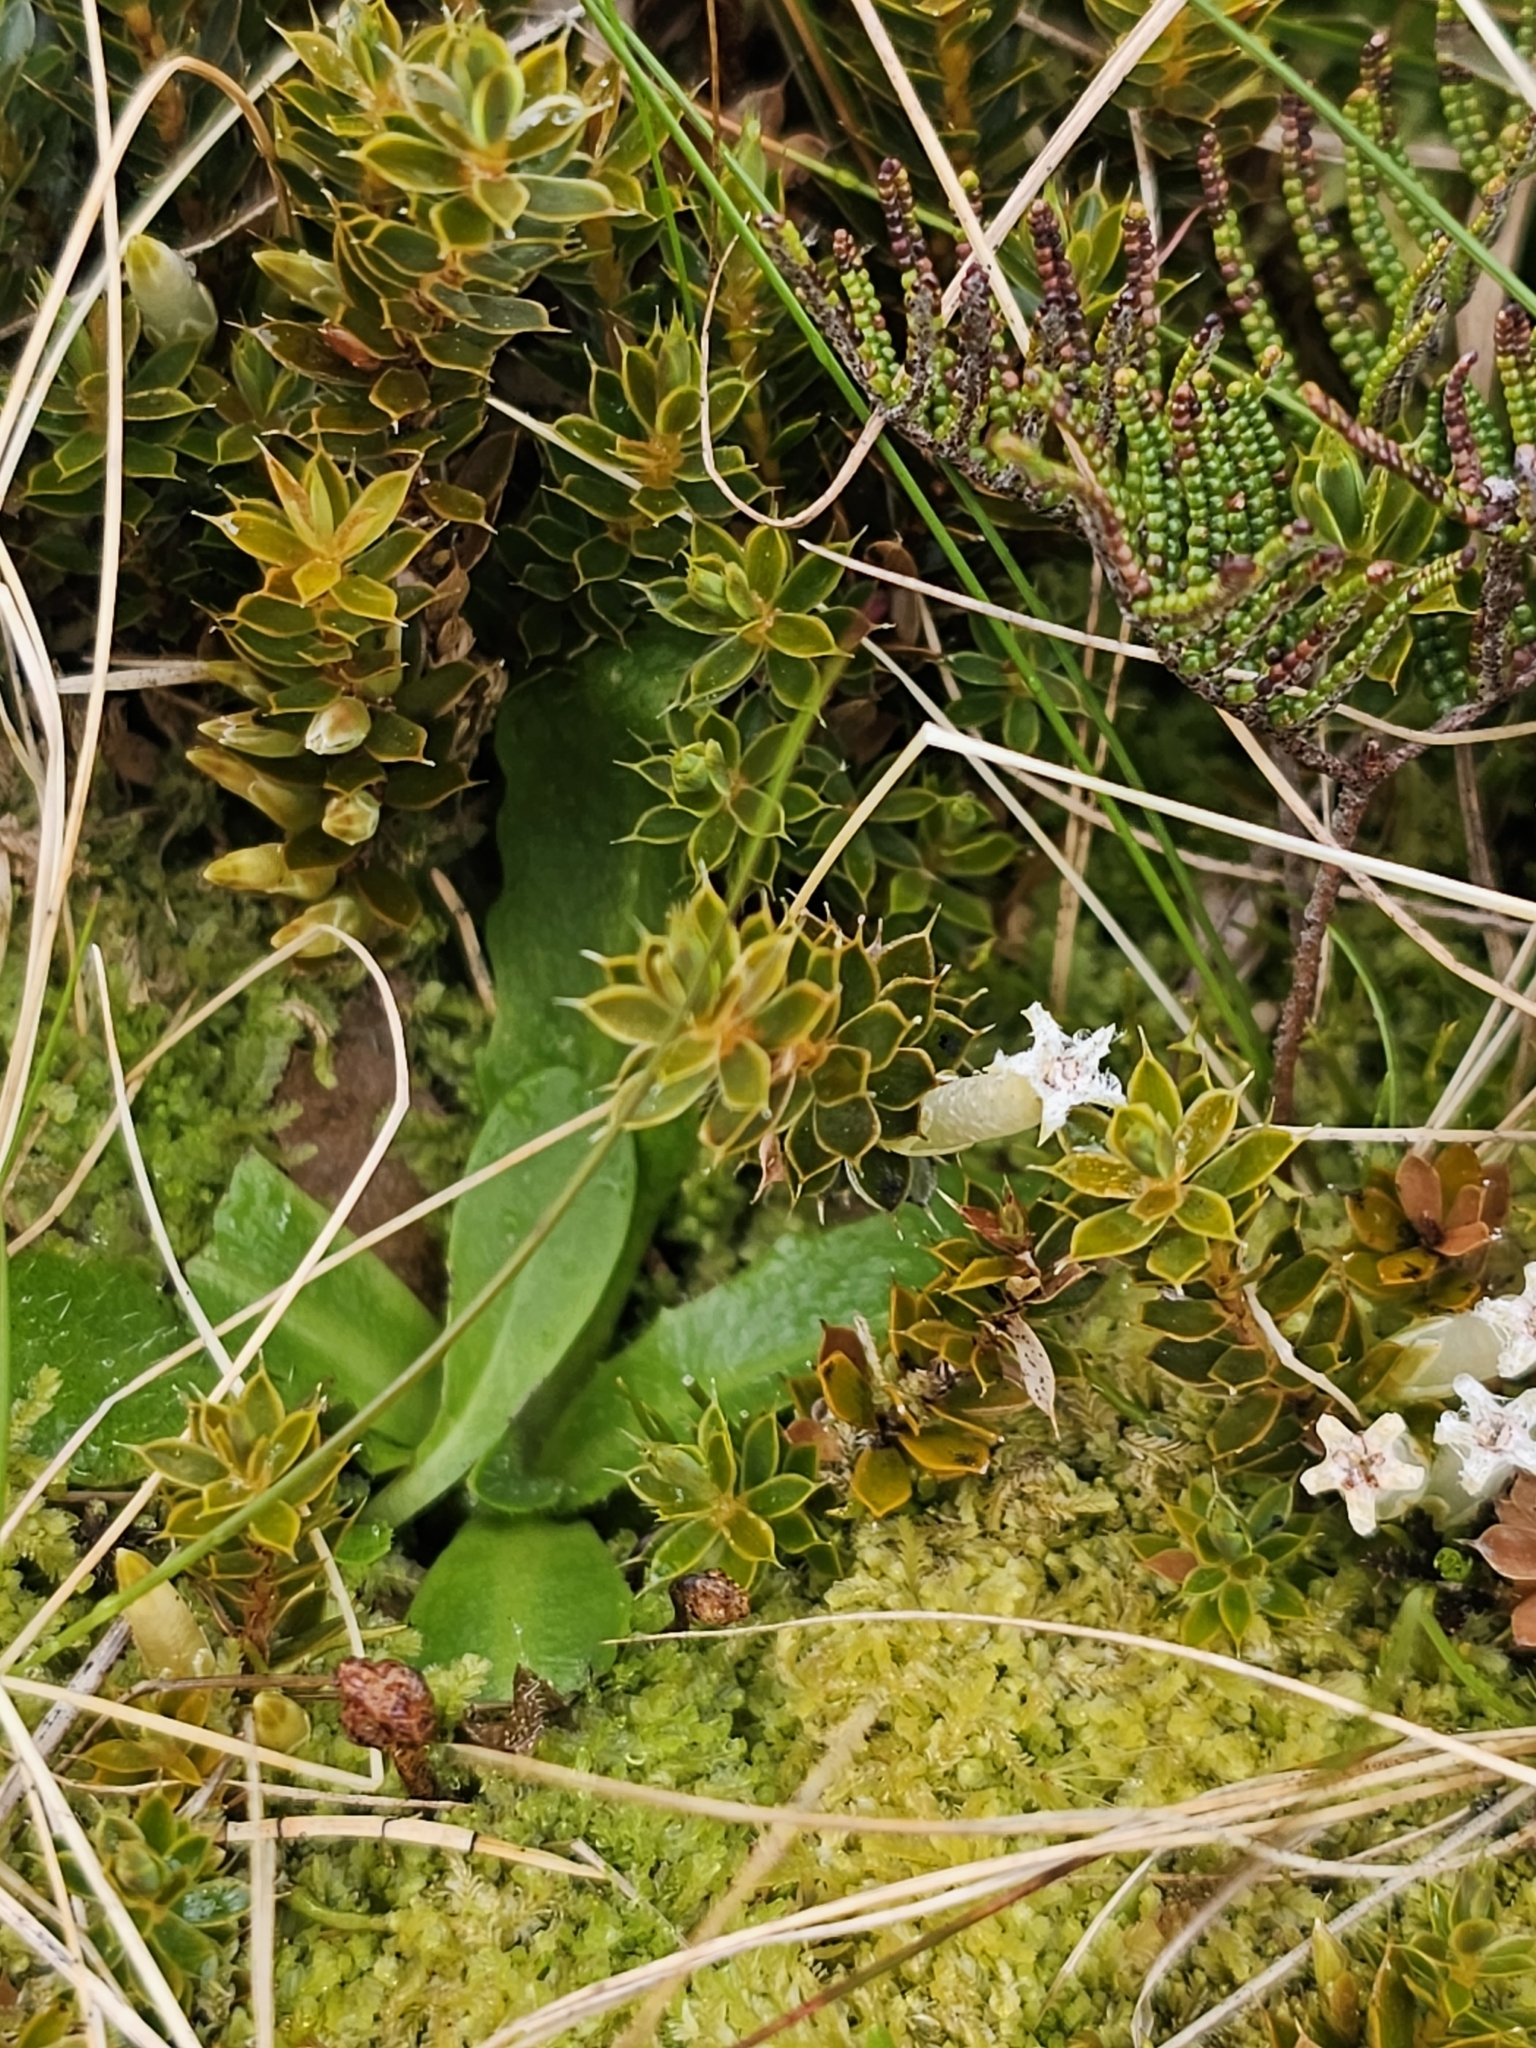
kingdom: Plantae
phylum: Tracheophyta
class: Magnoliopsida
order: Ericales
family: Ericaceae
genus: Styphelia
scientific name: Styphelia nesophila
